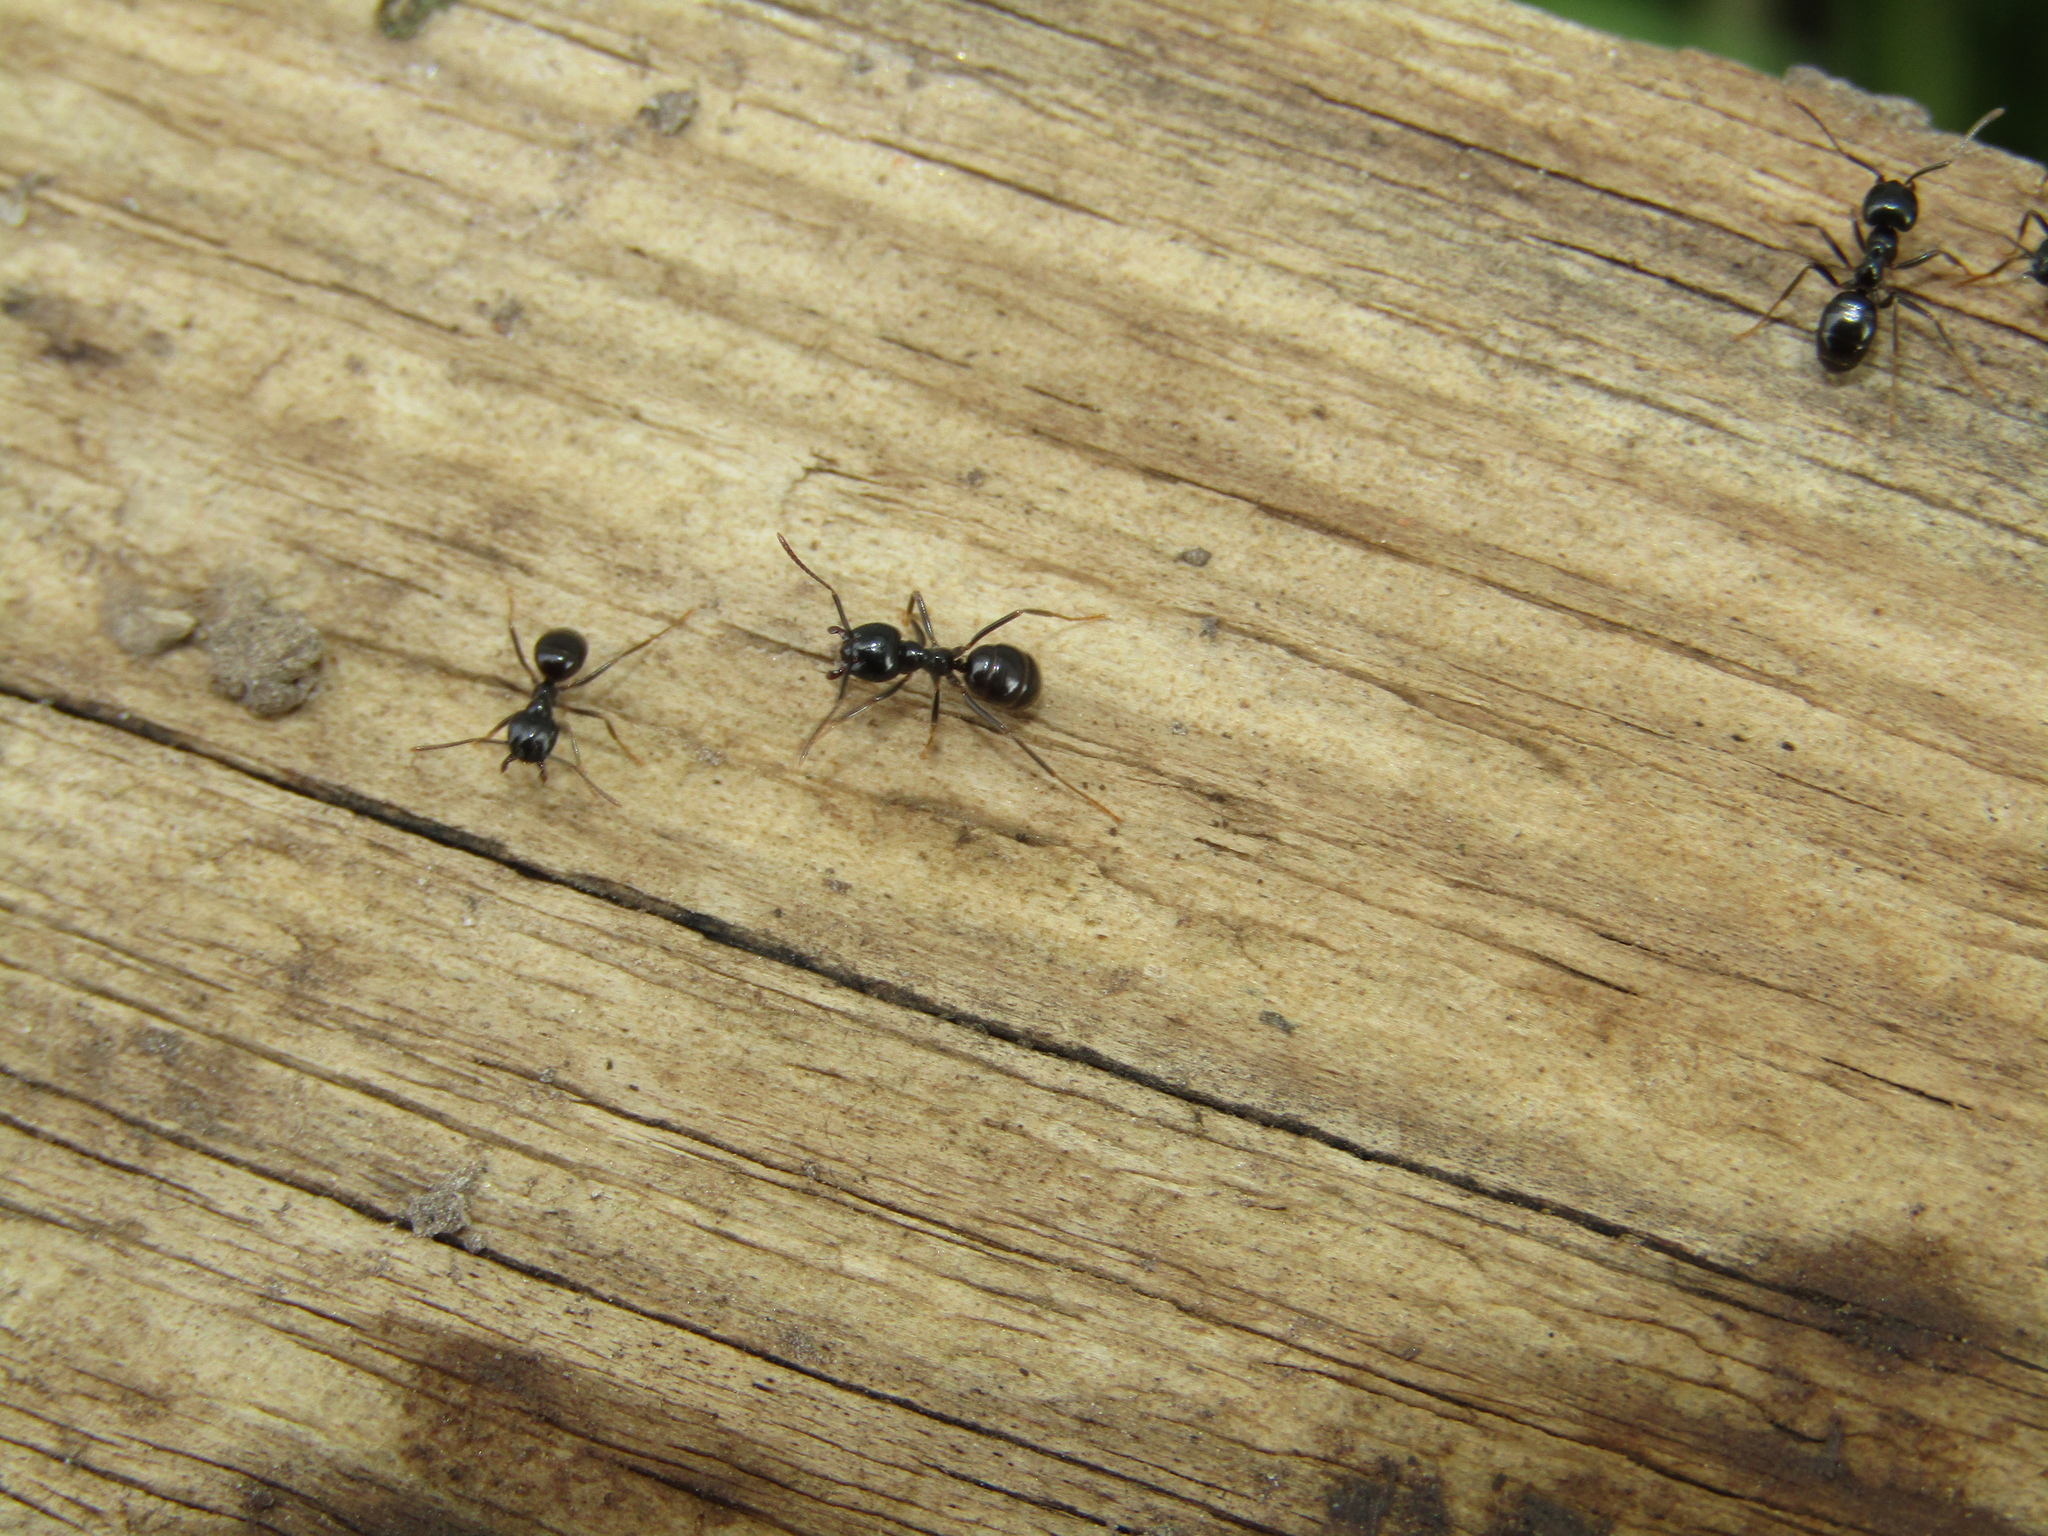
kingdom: Animalia
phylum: Arthropoda
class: Insecta
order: Hymenoptera
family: Formicidae
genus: Lasius
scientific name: Lasius fuliginosus
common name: Jet ant
